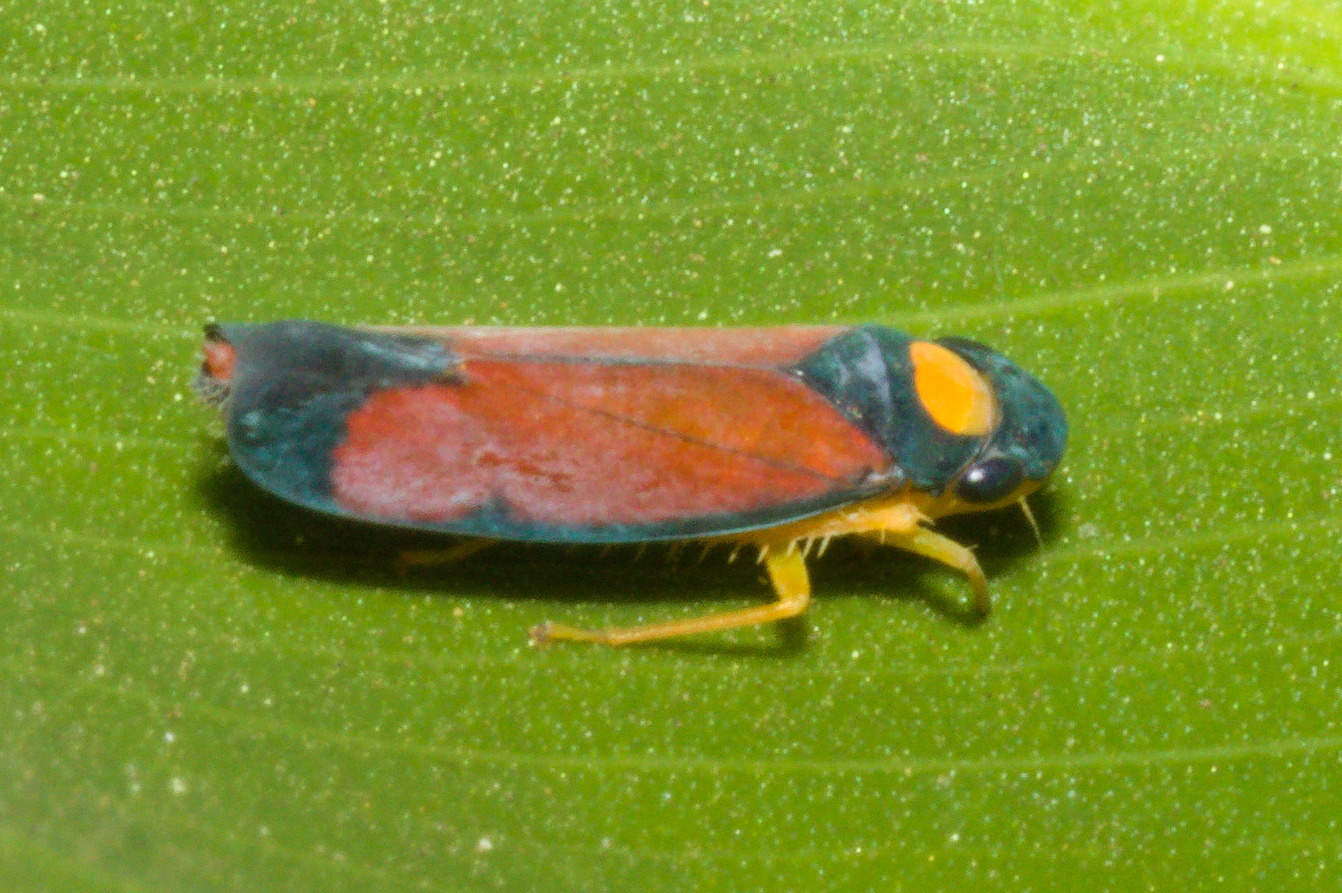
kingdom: Animalia
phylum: Arthropoda
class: Insecta
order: Hemiptera
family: Cicadellidae
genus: Erythrogonia
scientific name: Erythrogonia victori
